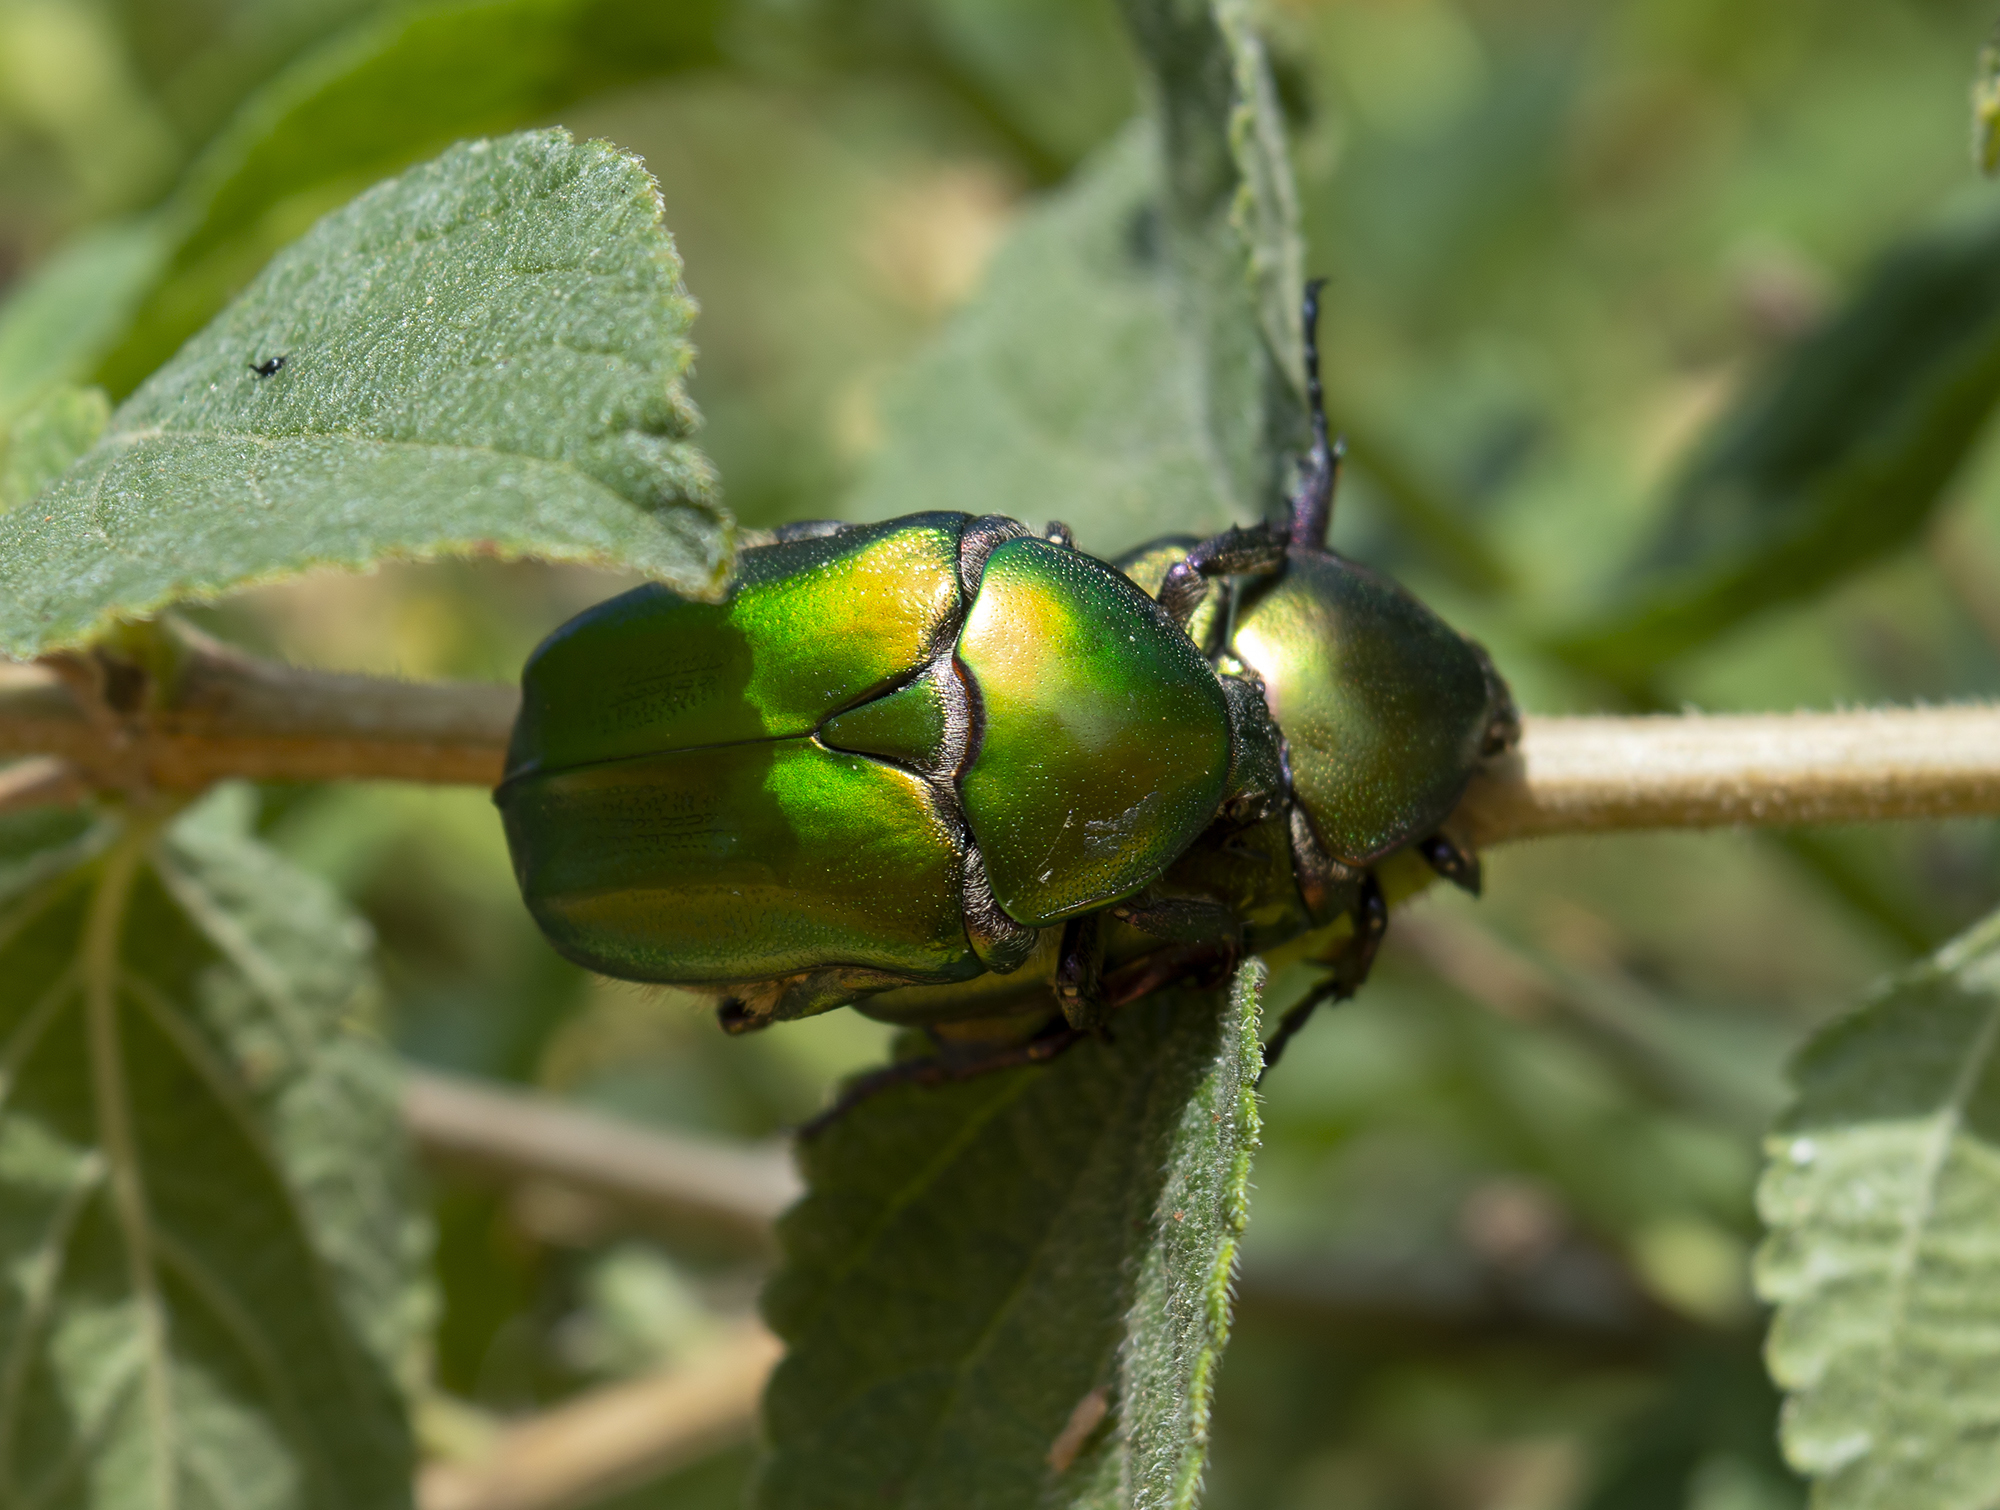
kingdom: Animalia
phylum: Arthropoda
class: Insecta
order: Coleoptera
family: Scarabaeidae
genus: Protaetia
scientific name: Protaetia cuprea
